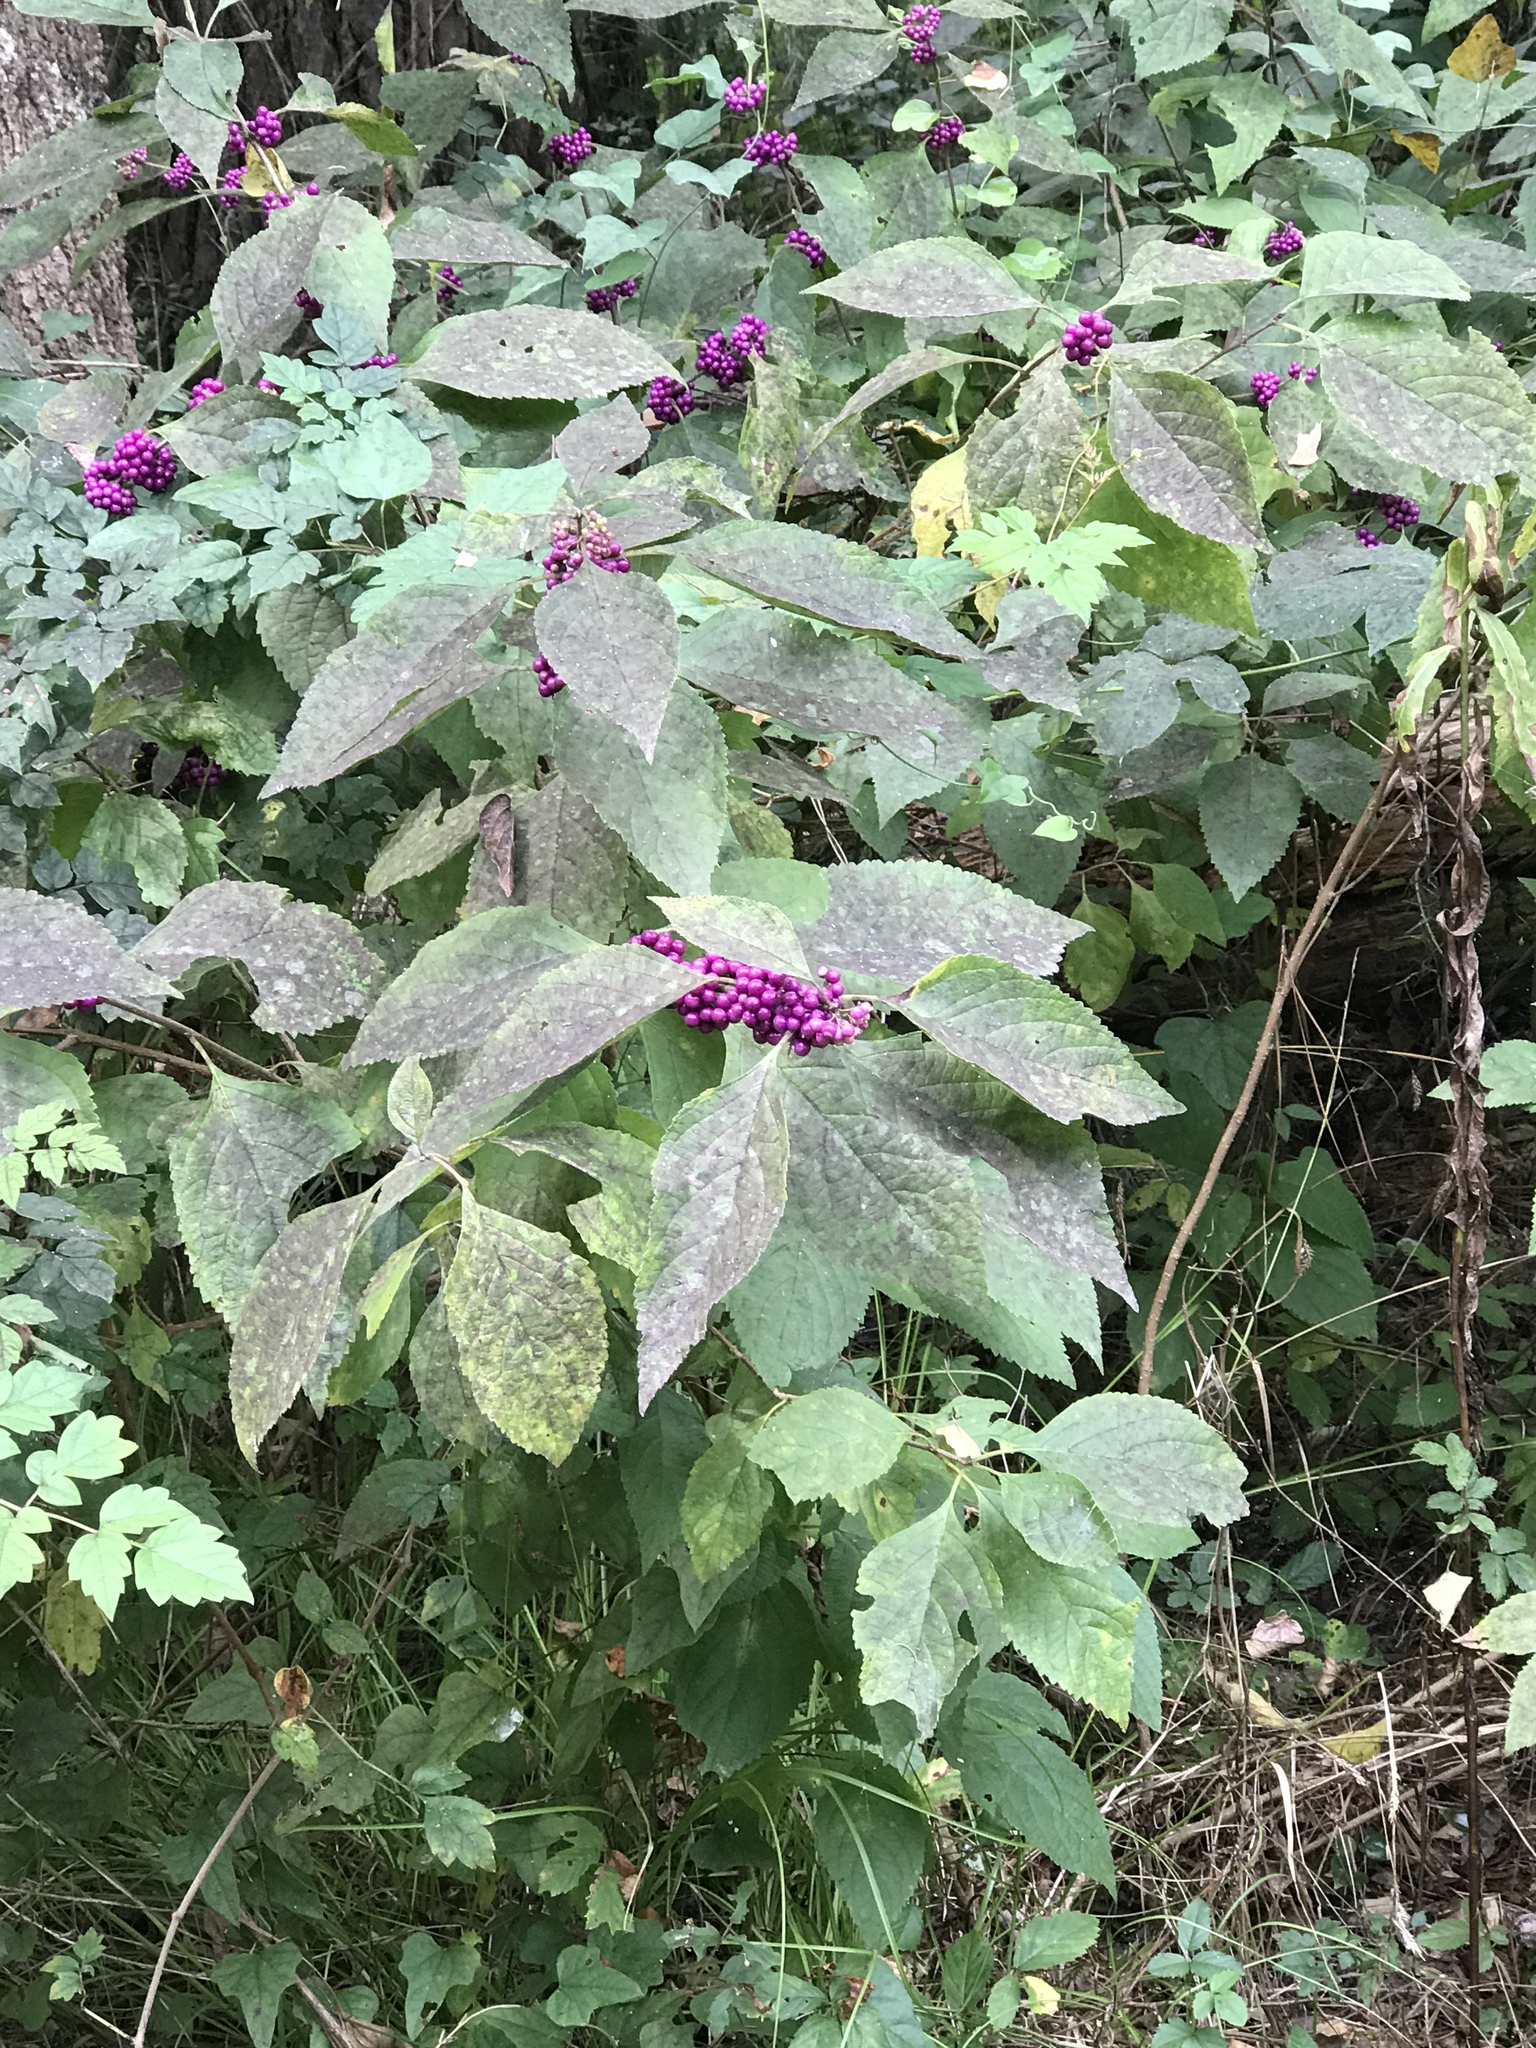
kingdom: Plantae
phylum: Tracheophyta
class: Magnoliopsida
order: Lamiales
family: Lamiaceae
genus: Callicarpa
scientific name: Callicarpa americana
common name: American beautyberry
